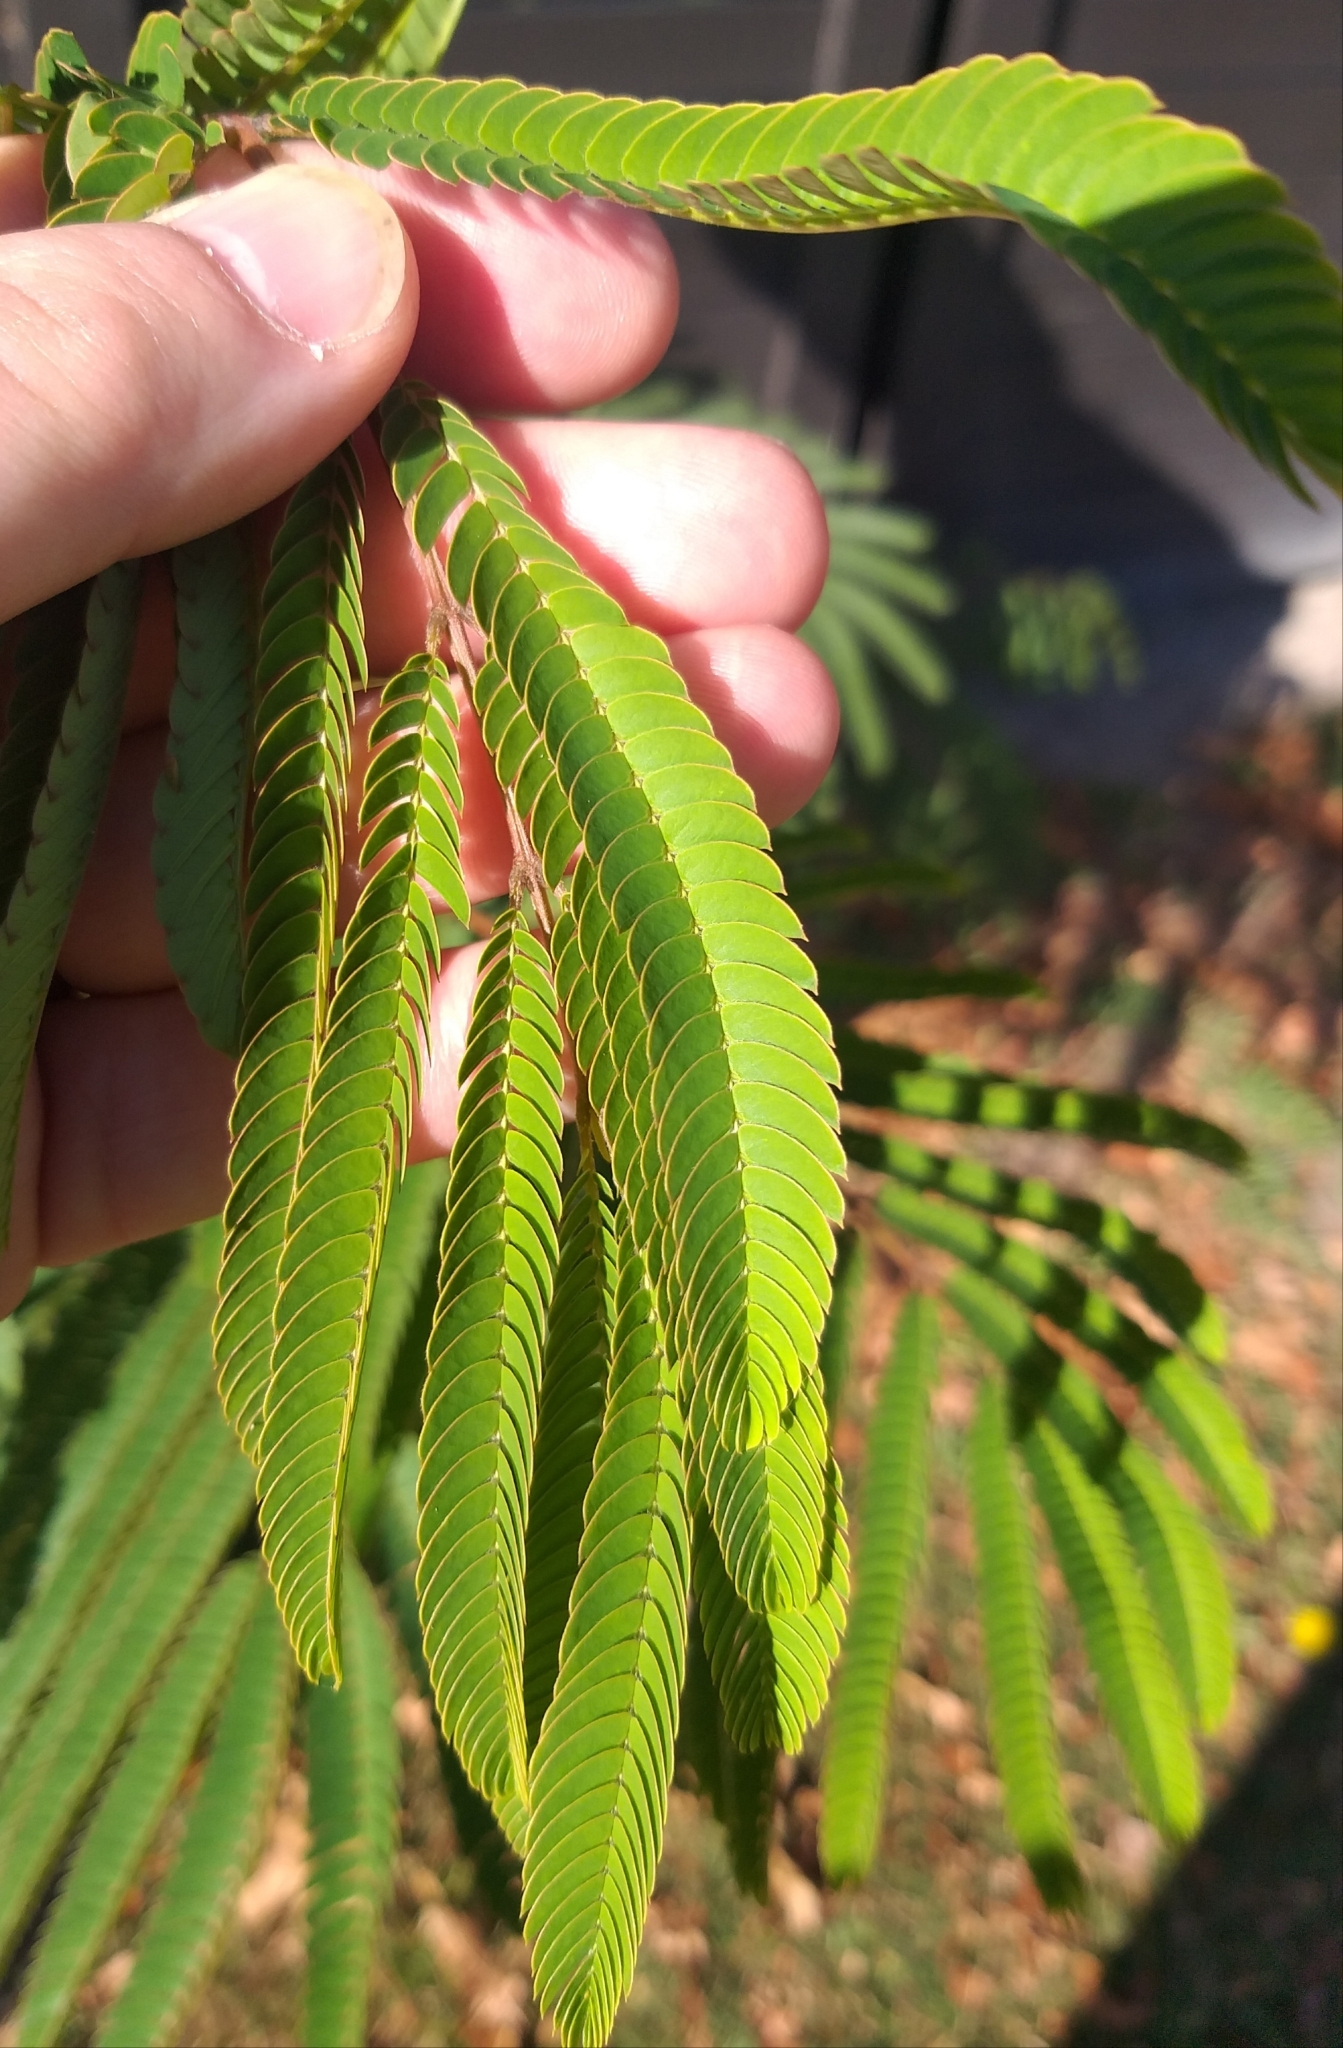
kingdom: Plantae
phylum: Tracheophyta
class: Magnoliopsida
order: Fabales
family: Fabaceae
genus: Paraserianthes
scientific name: Paraserianthes lophantha
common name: Plume albizia
